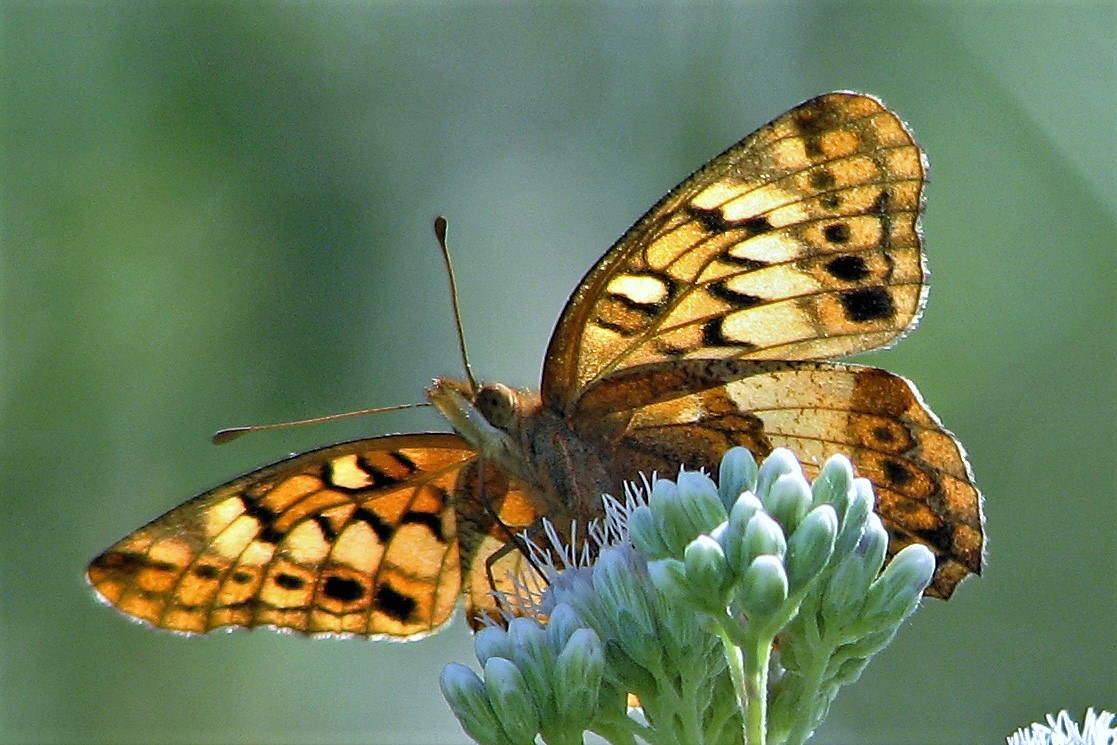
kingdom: Animalia
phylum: Arthropoda
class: Insecta
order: Lepidoptera
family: Nymphalidae
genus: Euptoieta
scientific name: Euptoieta hortensia
